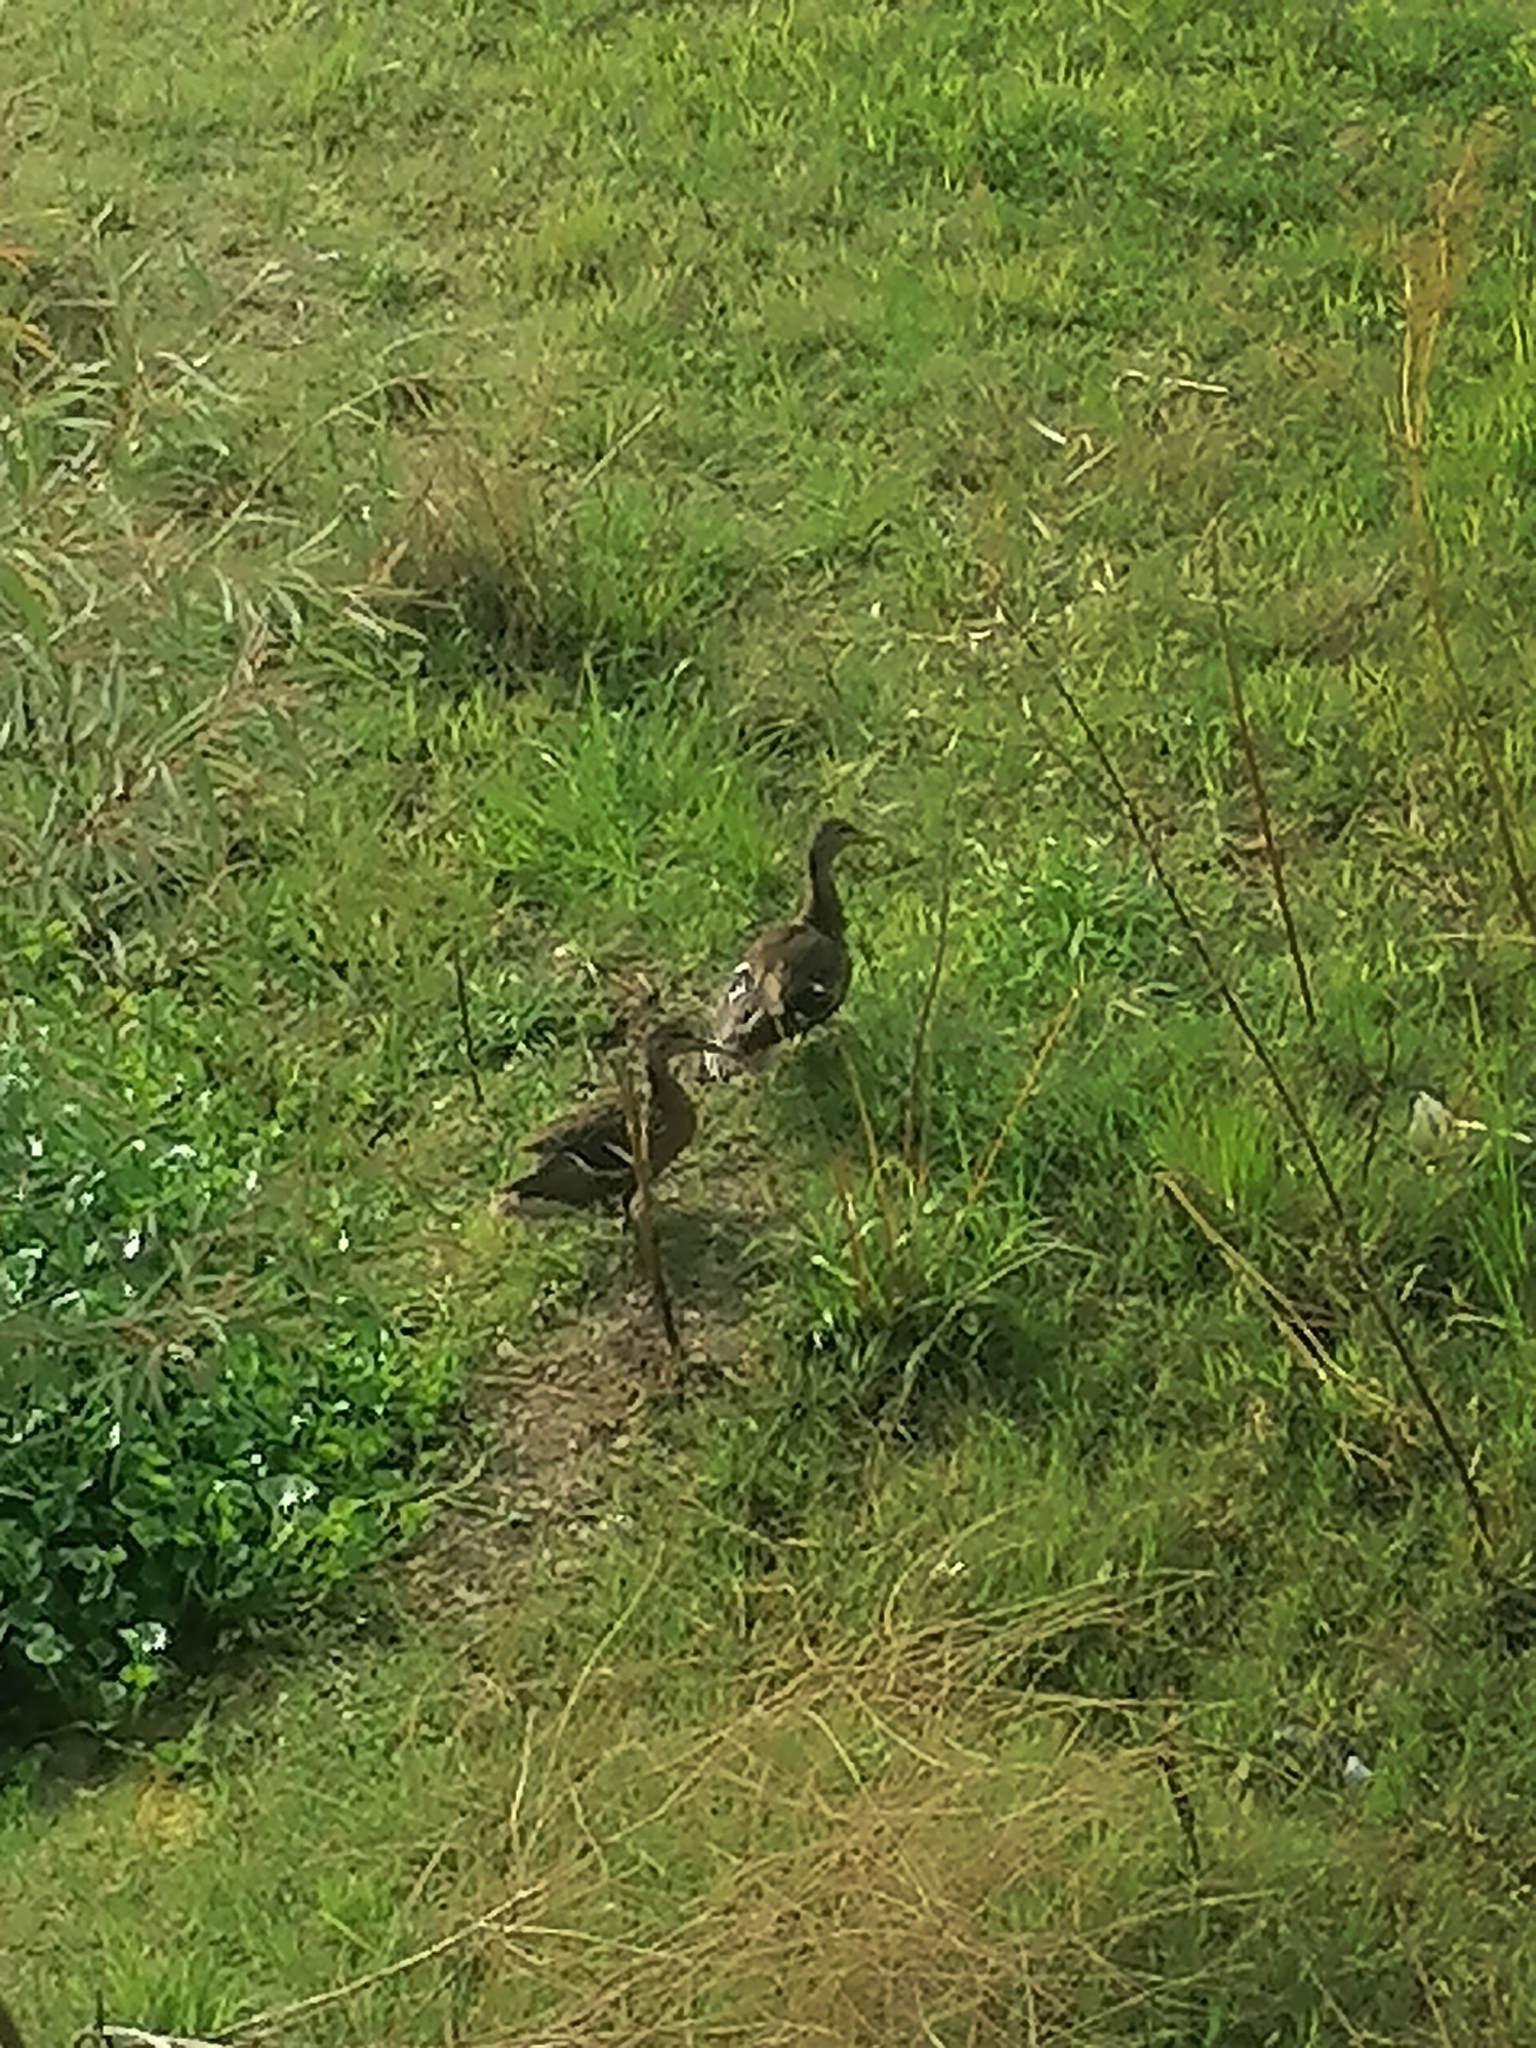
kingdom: Animalia
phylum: Chordata
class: Aves
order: Anseriformes
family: Anatidae
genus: Anas
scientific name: Anas diazi
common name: Mexican duck
